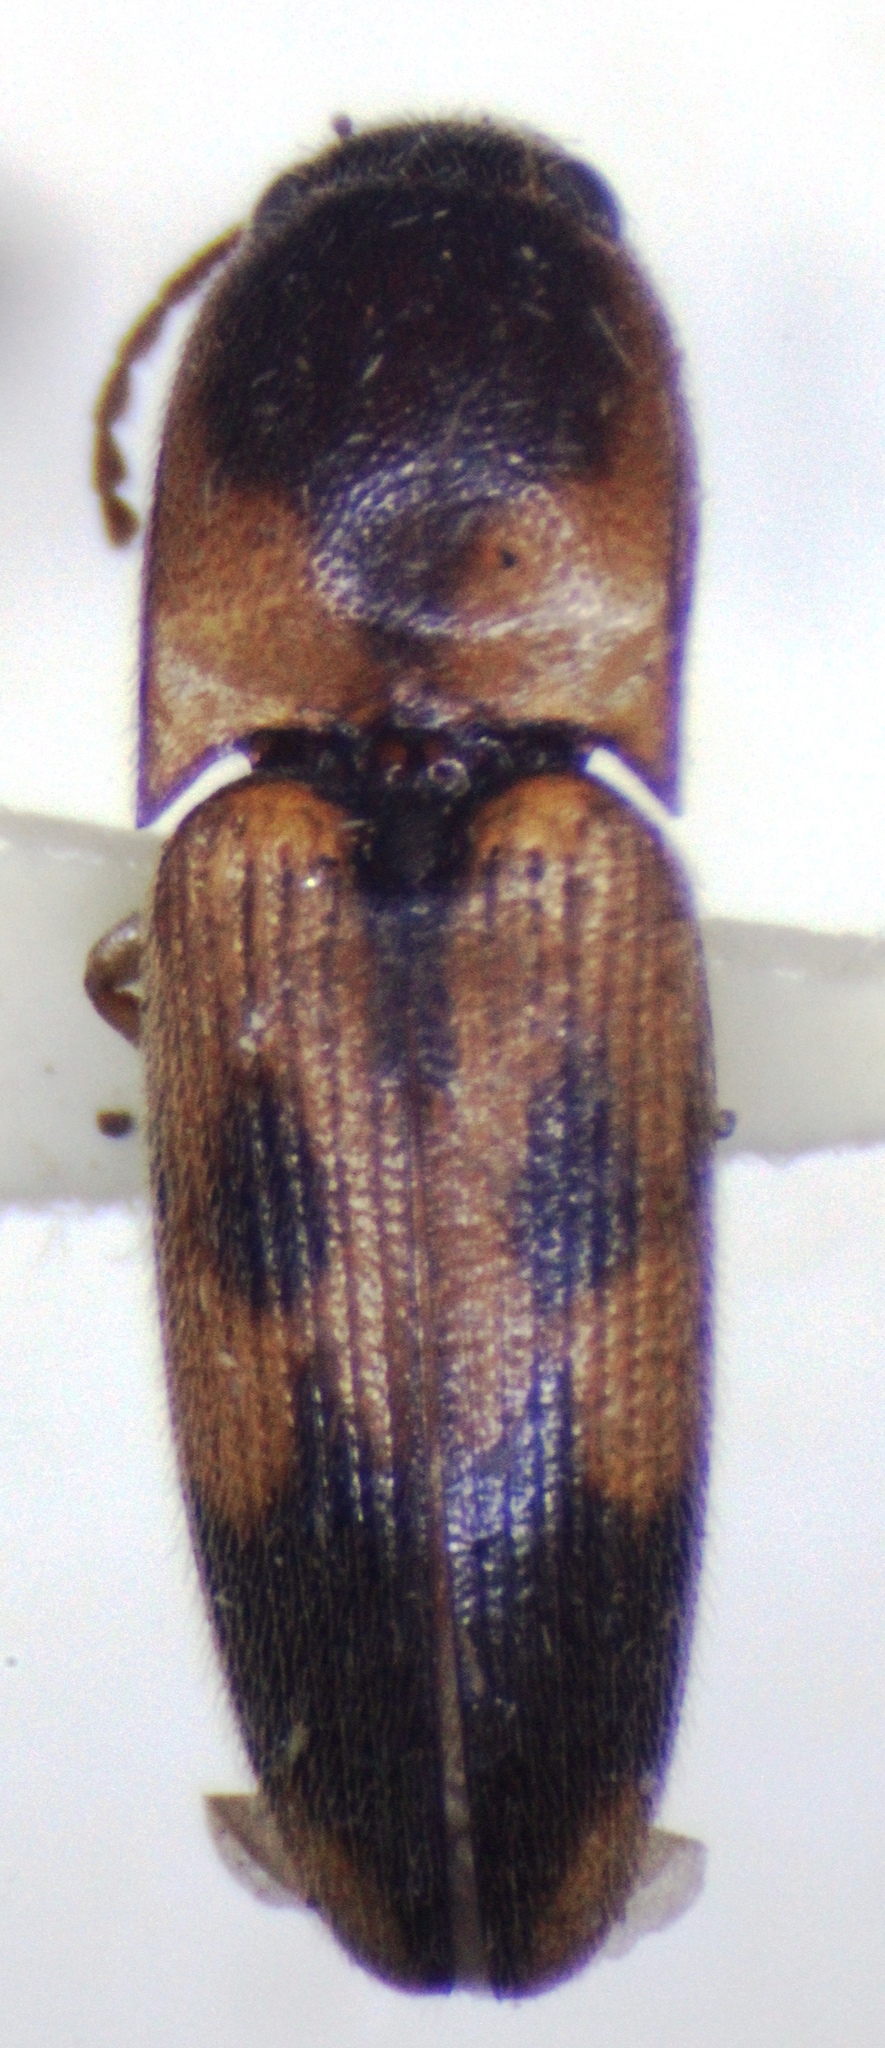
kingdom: Animalia
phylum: Arthropoda
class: Insecta
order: Coleoptera
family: Elateridae
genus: Monocrepidius
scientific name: Monocrepidius vartiani
